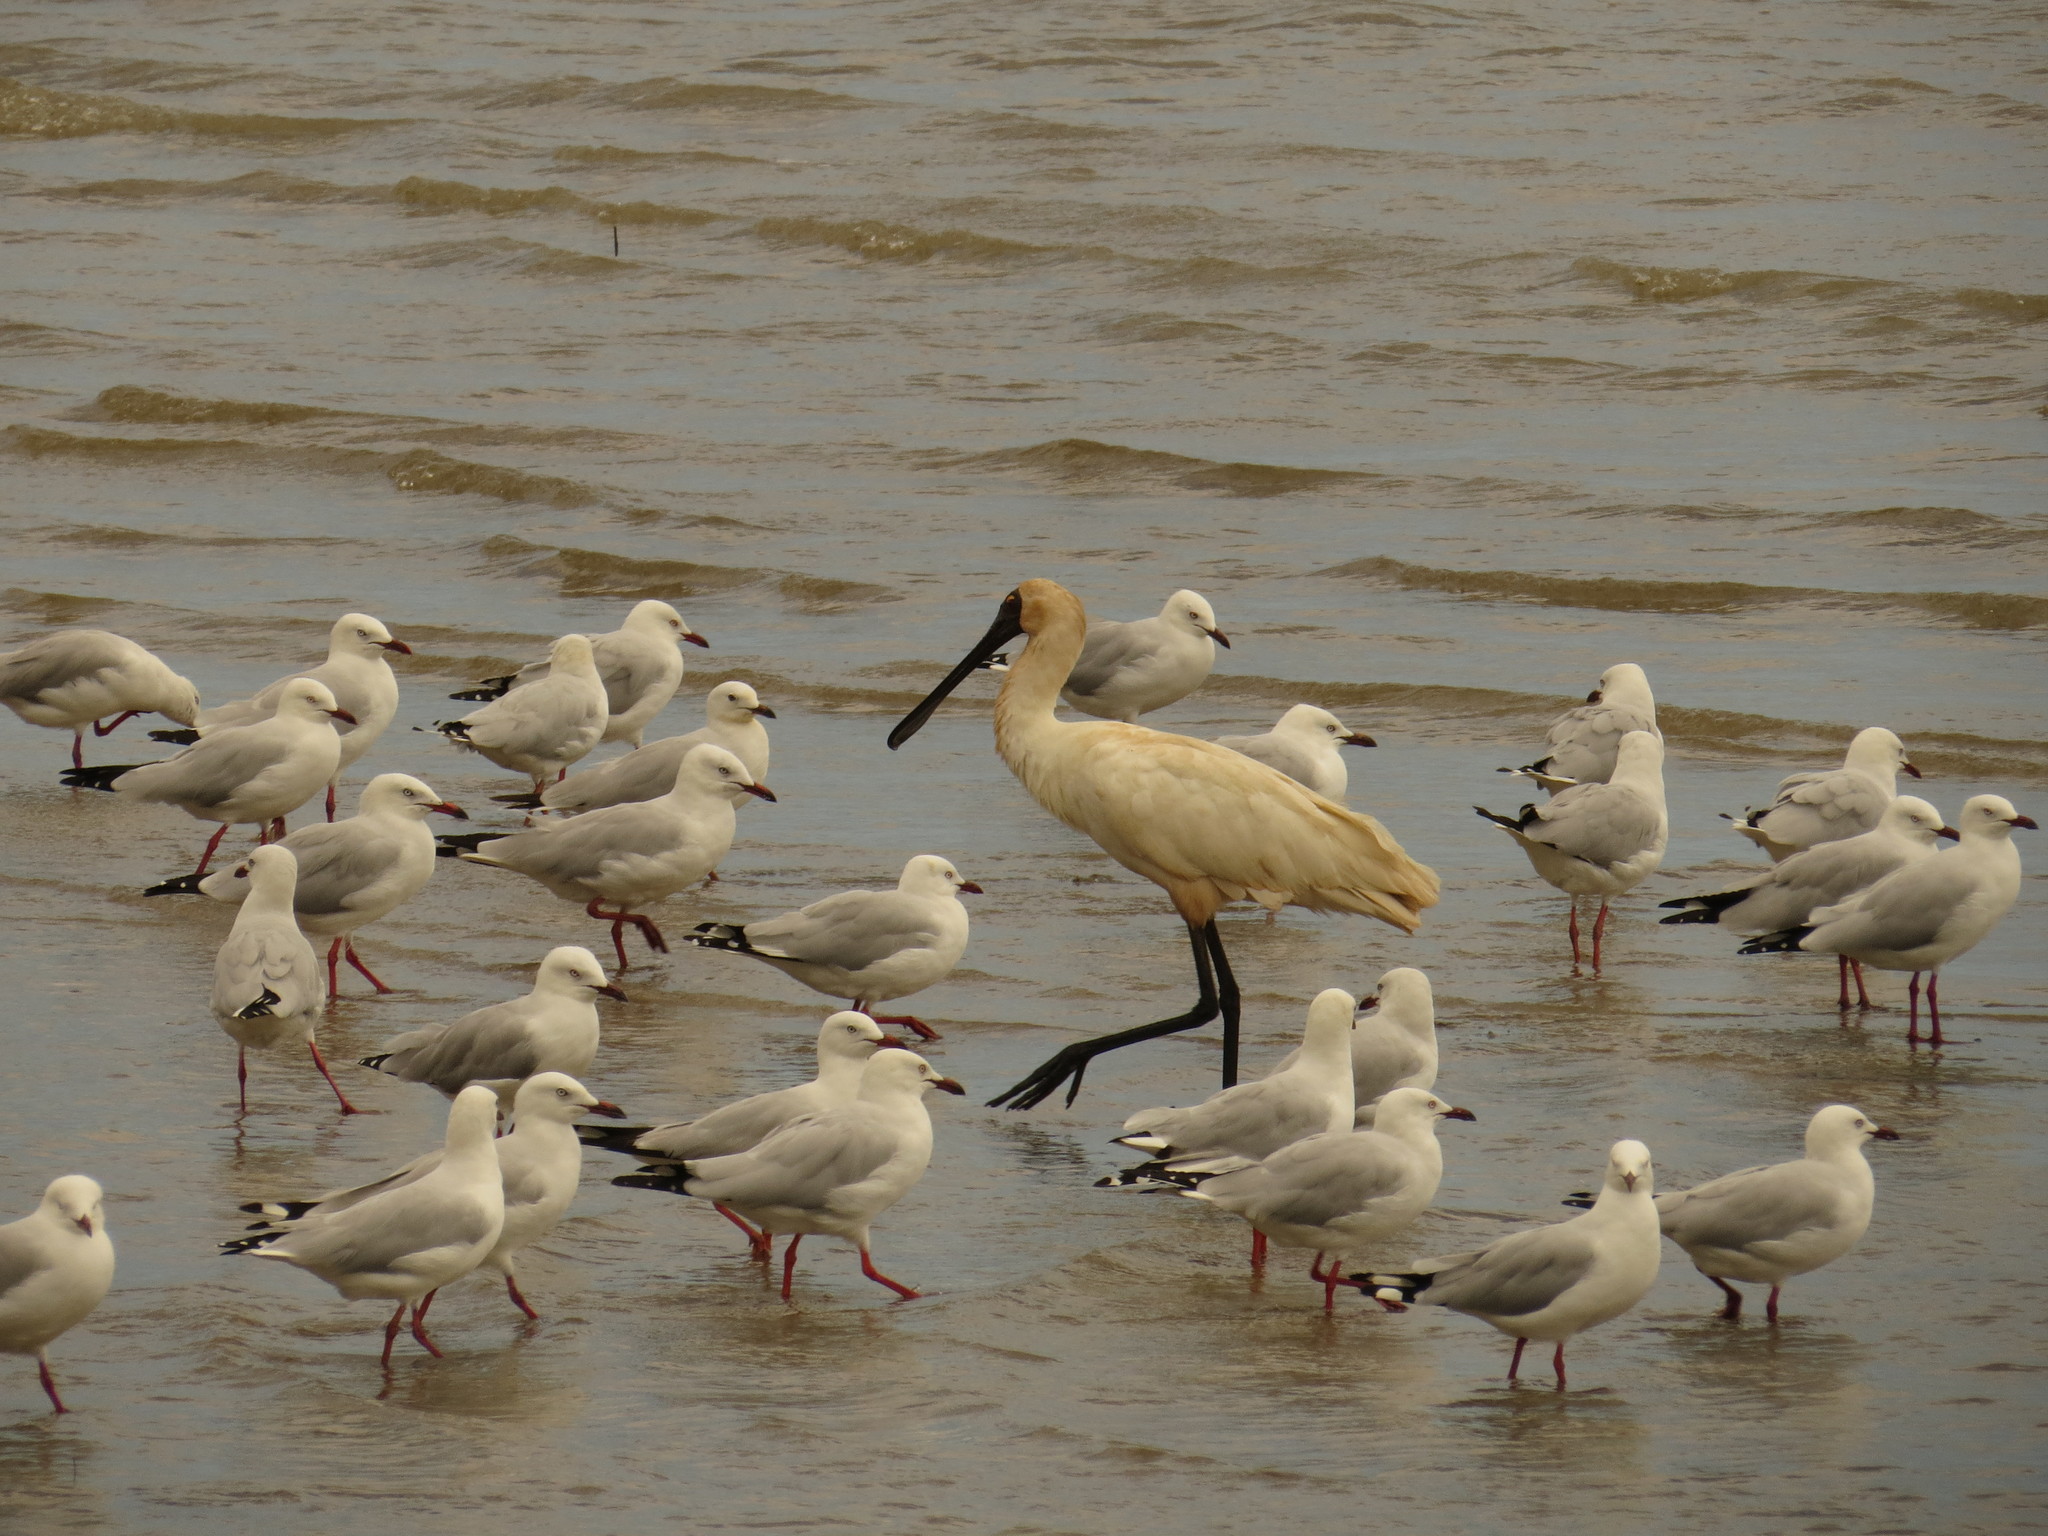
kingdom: Animalia
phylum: Chordata
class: Aves
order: Pelecaniformes
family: Threskiornithidae
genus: Platalea
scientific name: Platalea regia
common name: Royal spoonbill
